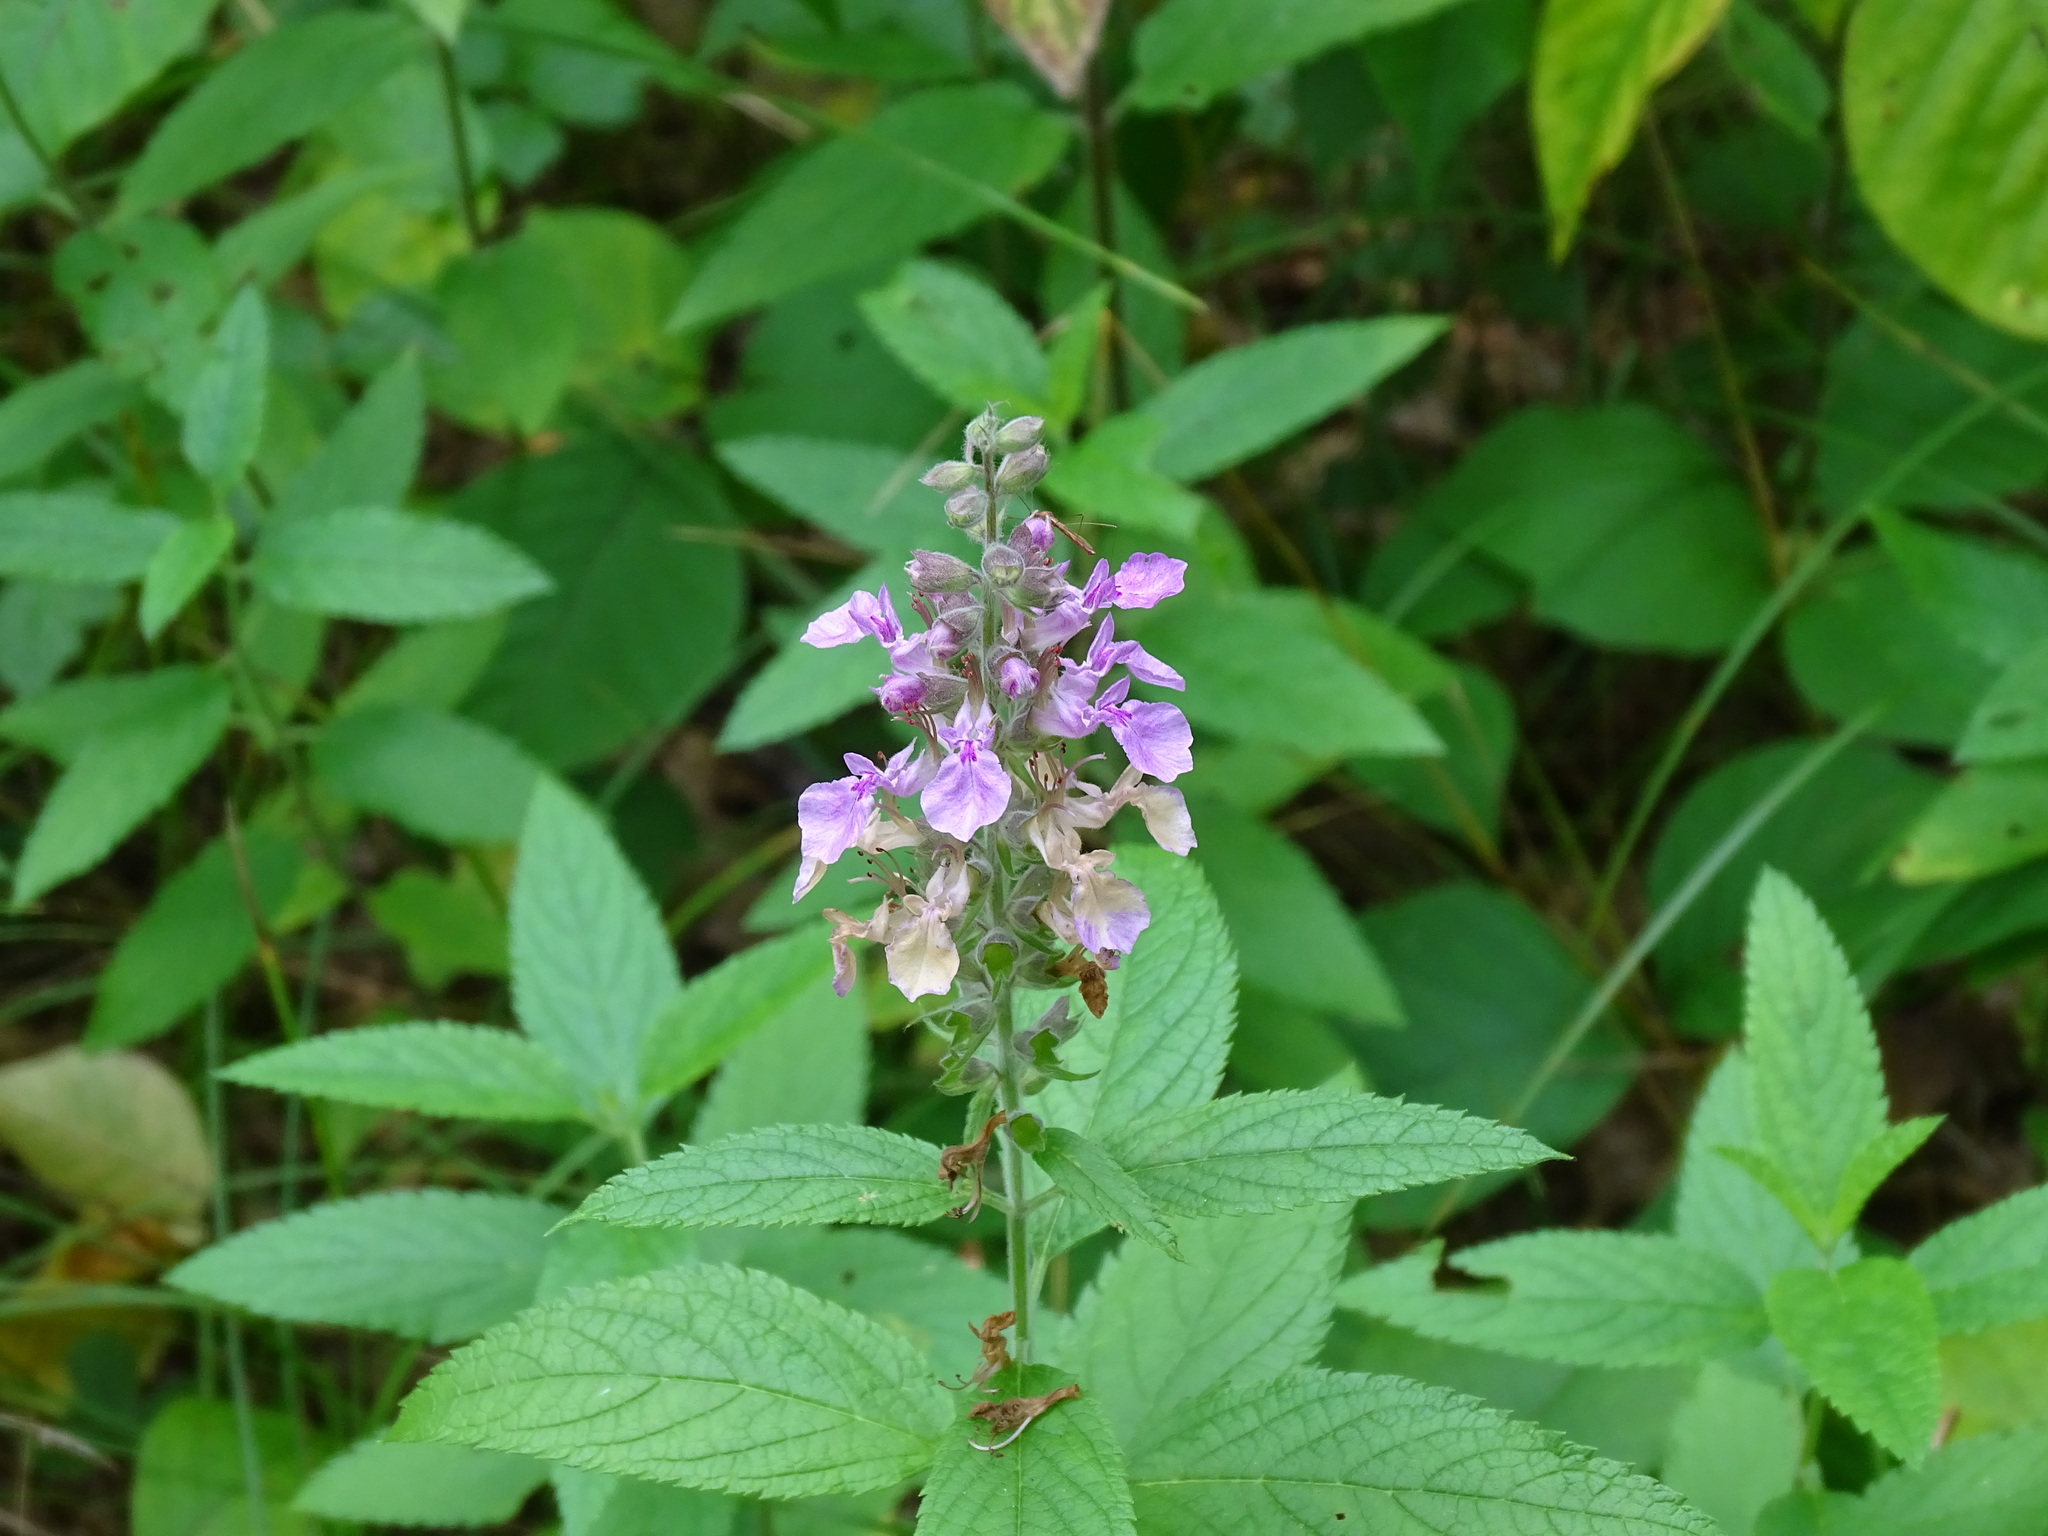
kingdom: Plantae
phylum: Tracheophyta
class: Magnoliopsida
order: Lamiales
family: Lamiaceae
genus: Teucrium
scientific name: Teucrium canadense
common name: American germander
